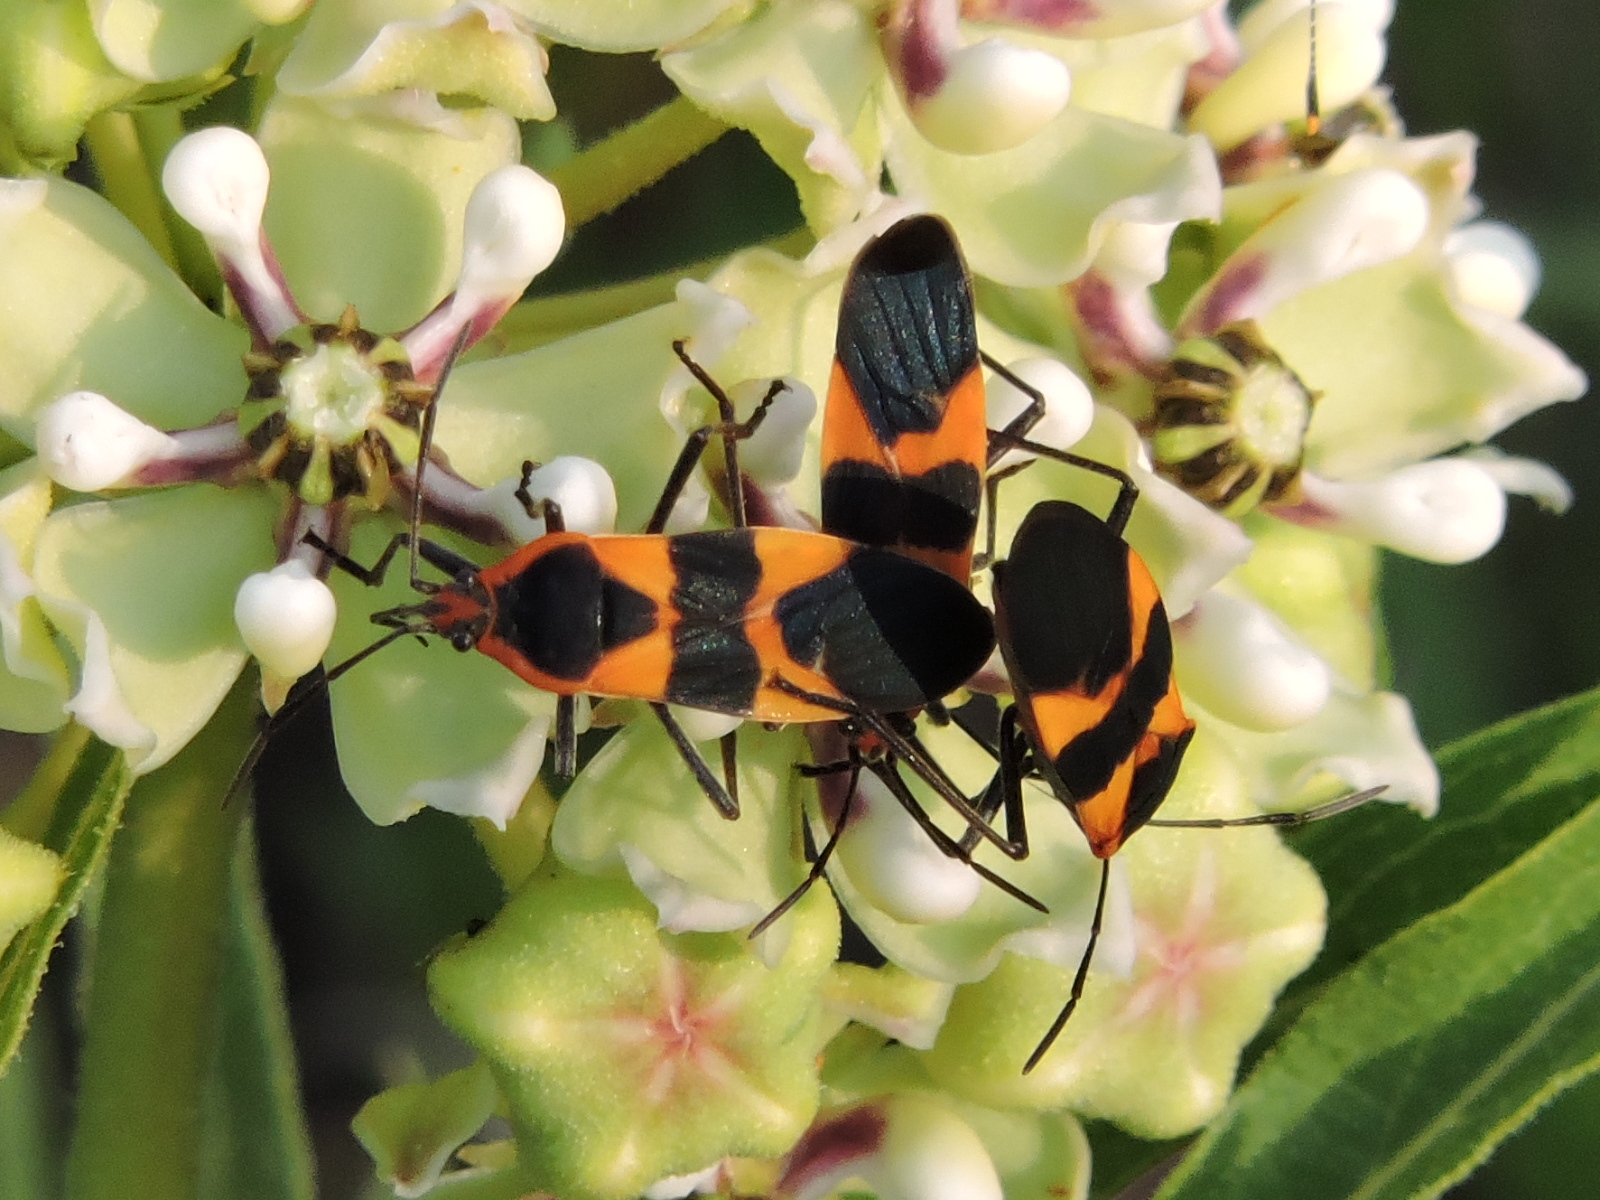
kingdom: Animalia
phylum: Arthropoda
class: Insecta
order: Hemiptera
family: Lygaeidae
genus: Oncopeltus
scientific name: Oncopeltus fasciatus
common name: Large milkweed bug
